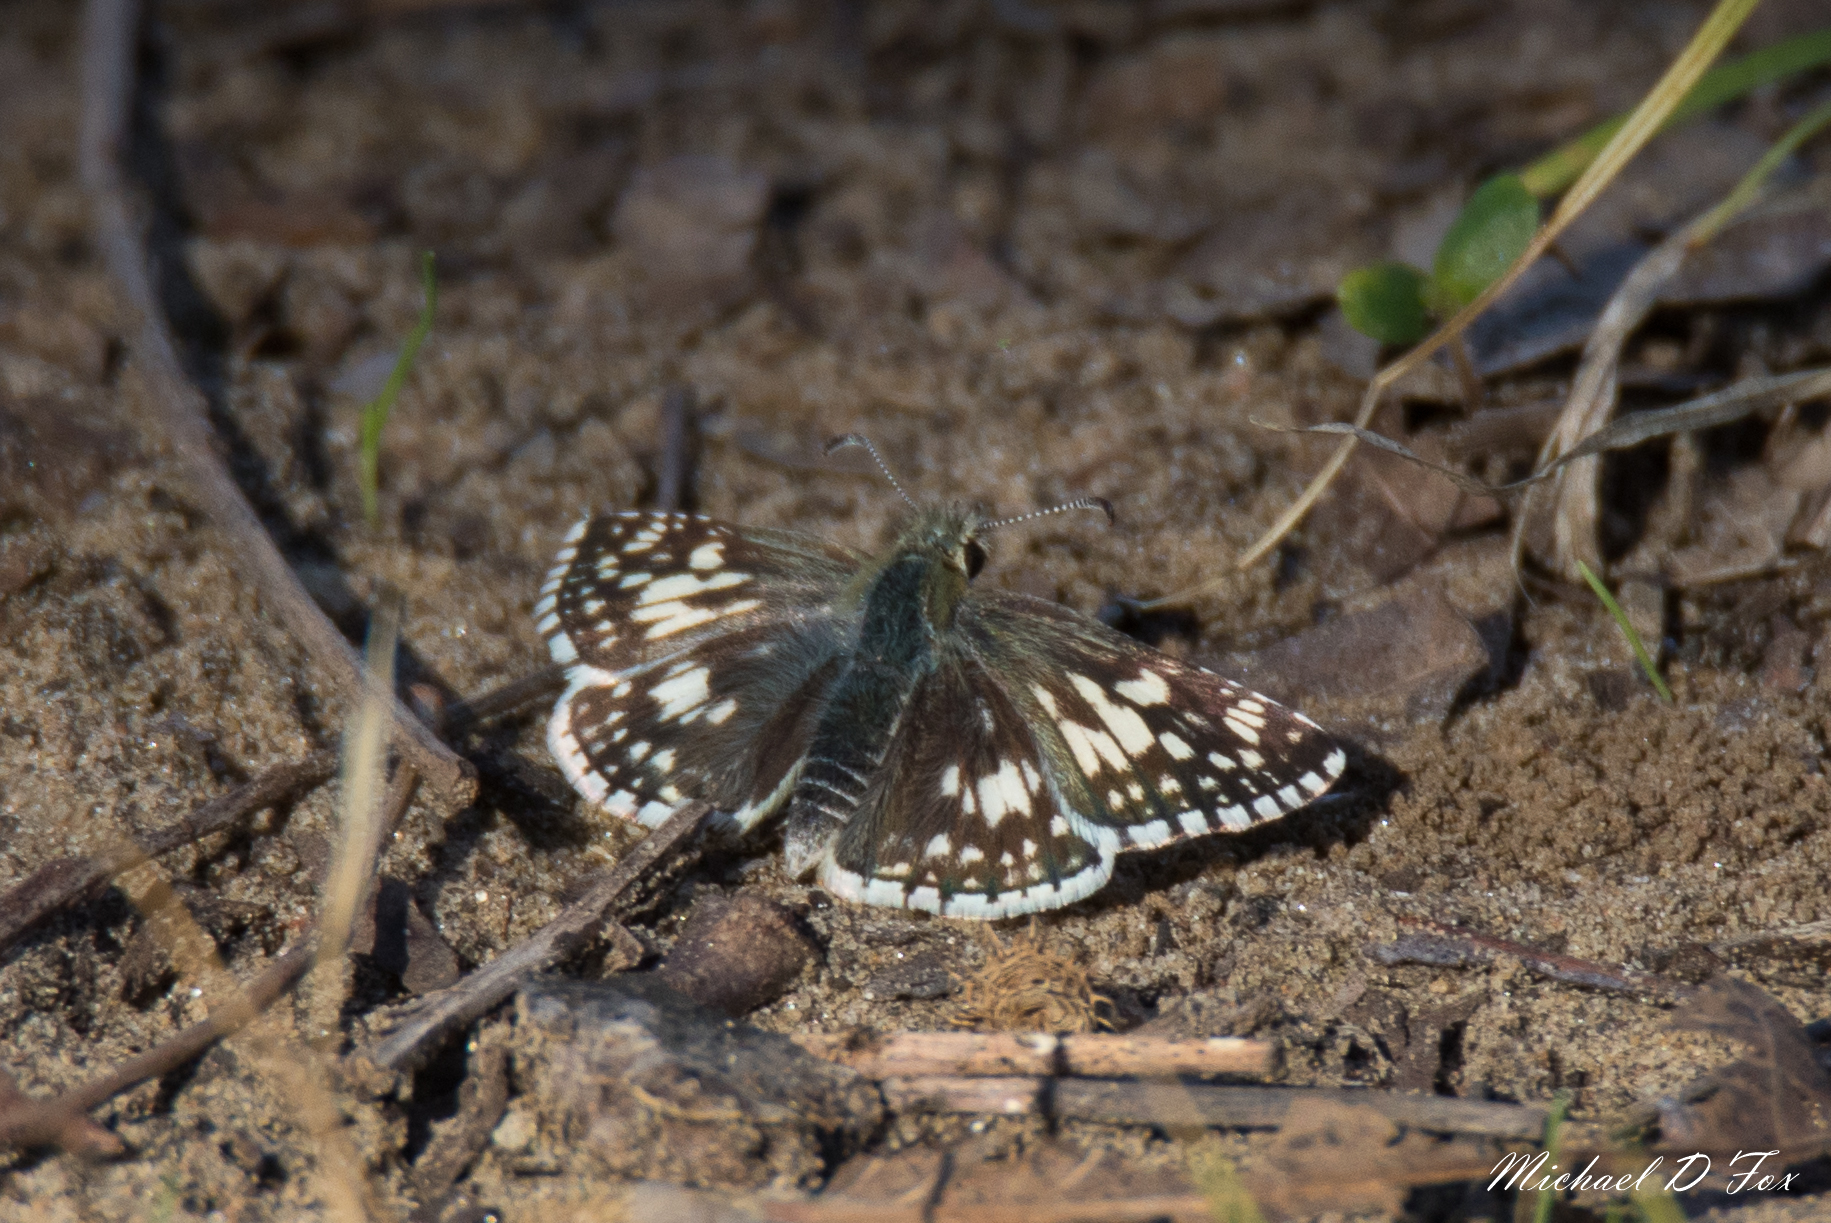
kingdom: Animalia
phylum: Arthropoda
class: Insecta
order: Lepidoptera
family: Hesperiidae
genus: Burnsius
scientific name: Burnsius communis
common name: Common checkered-skipper
